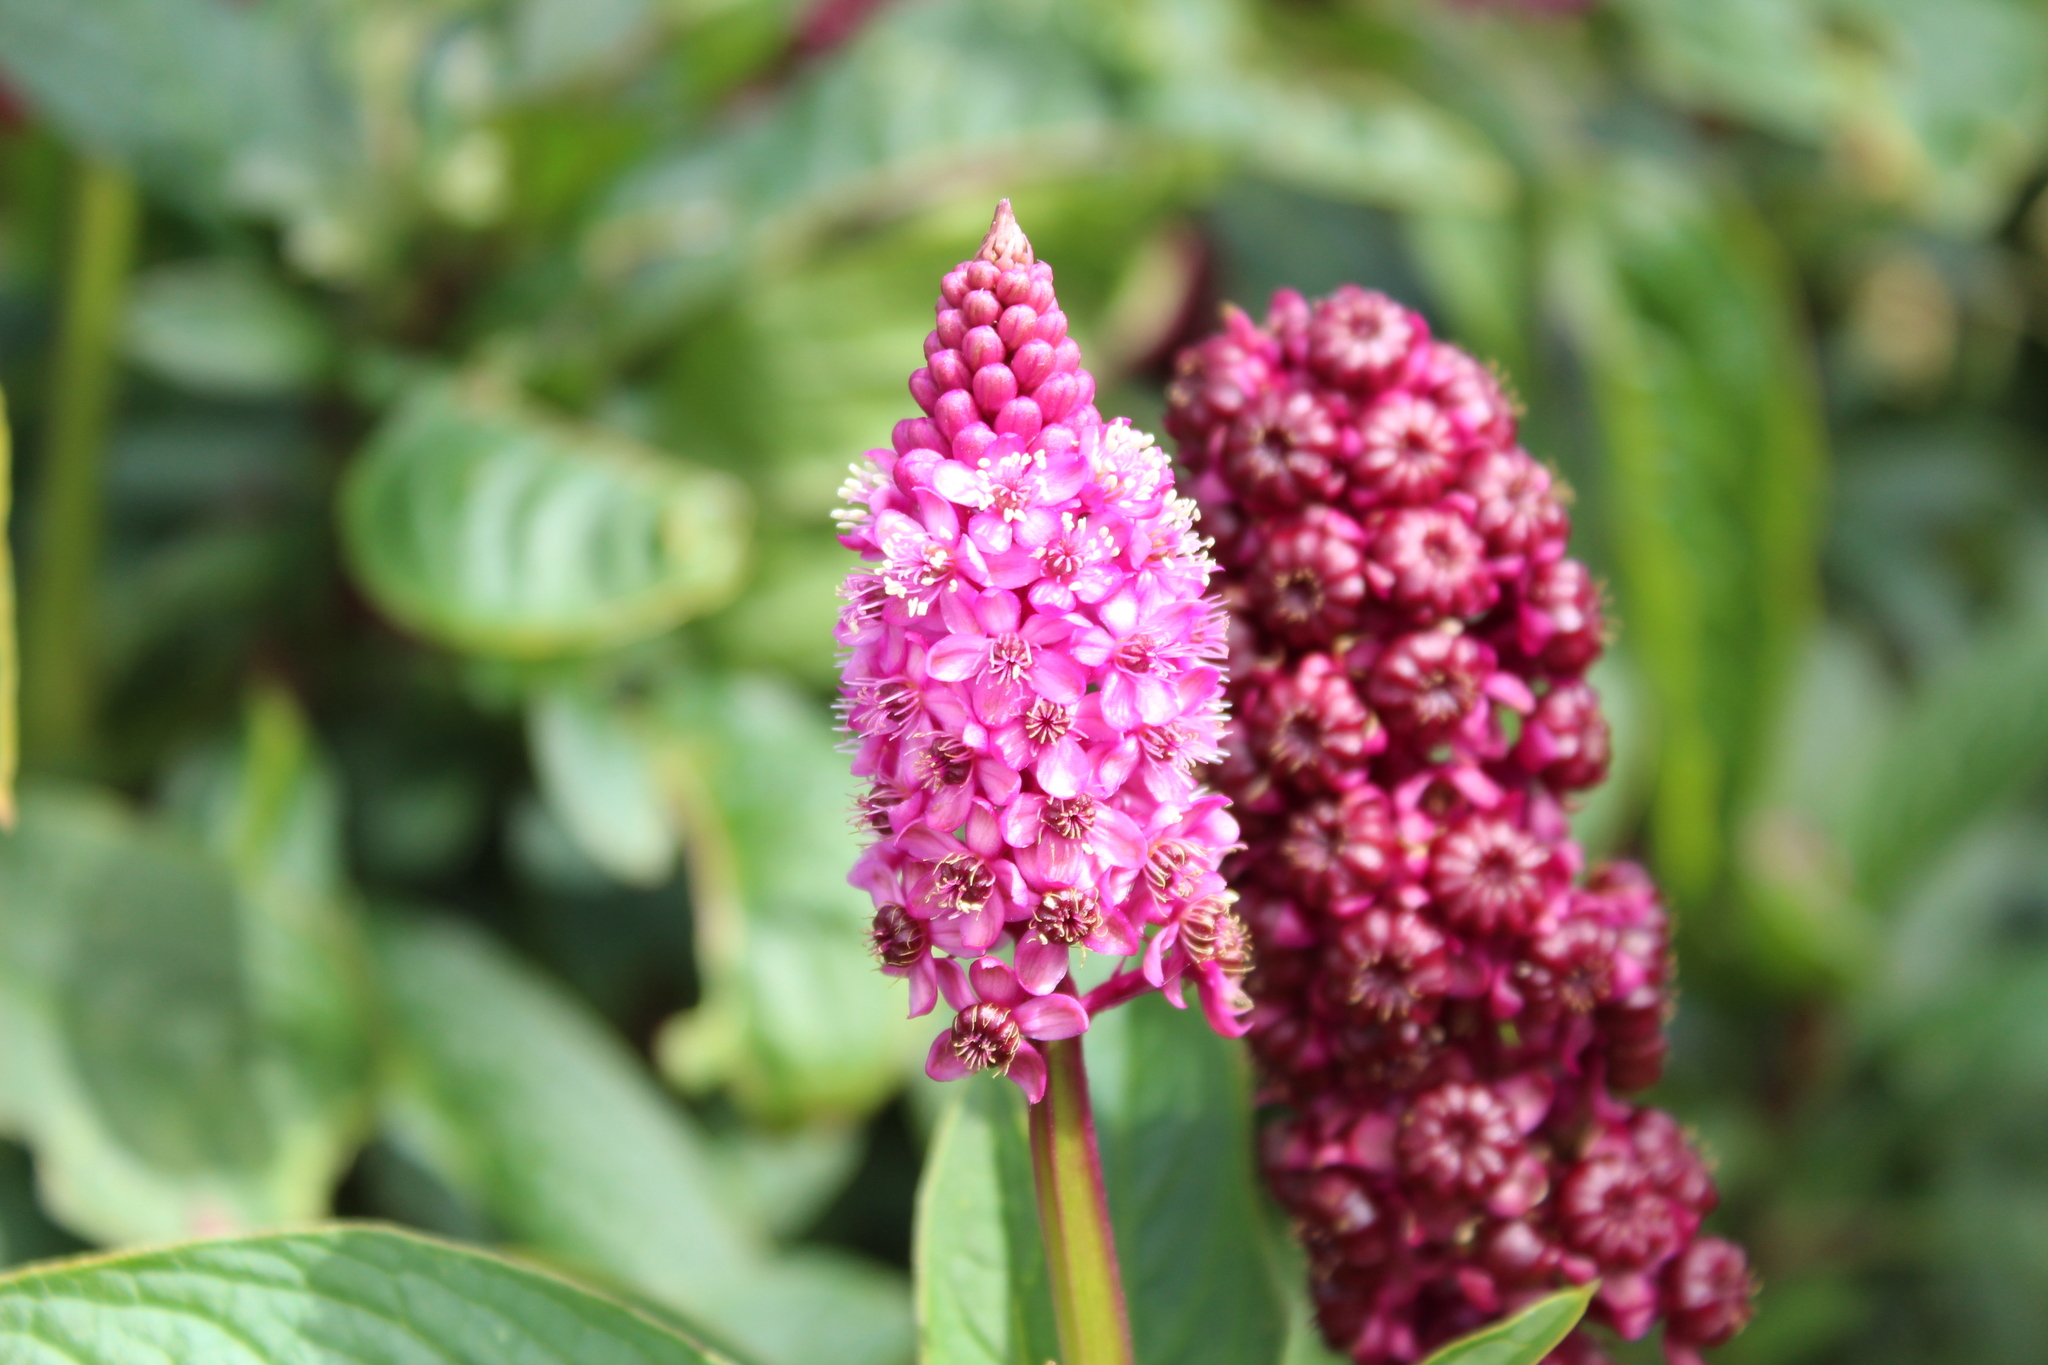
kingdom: Plantae
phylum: Tracheophyta
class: Magnoliopsida
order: Caryophyllales
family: Phytolaccaceae
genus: Phytolacca
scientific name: Phytolacca bogotensis
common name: Southern pokeweed
